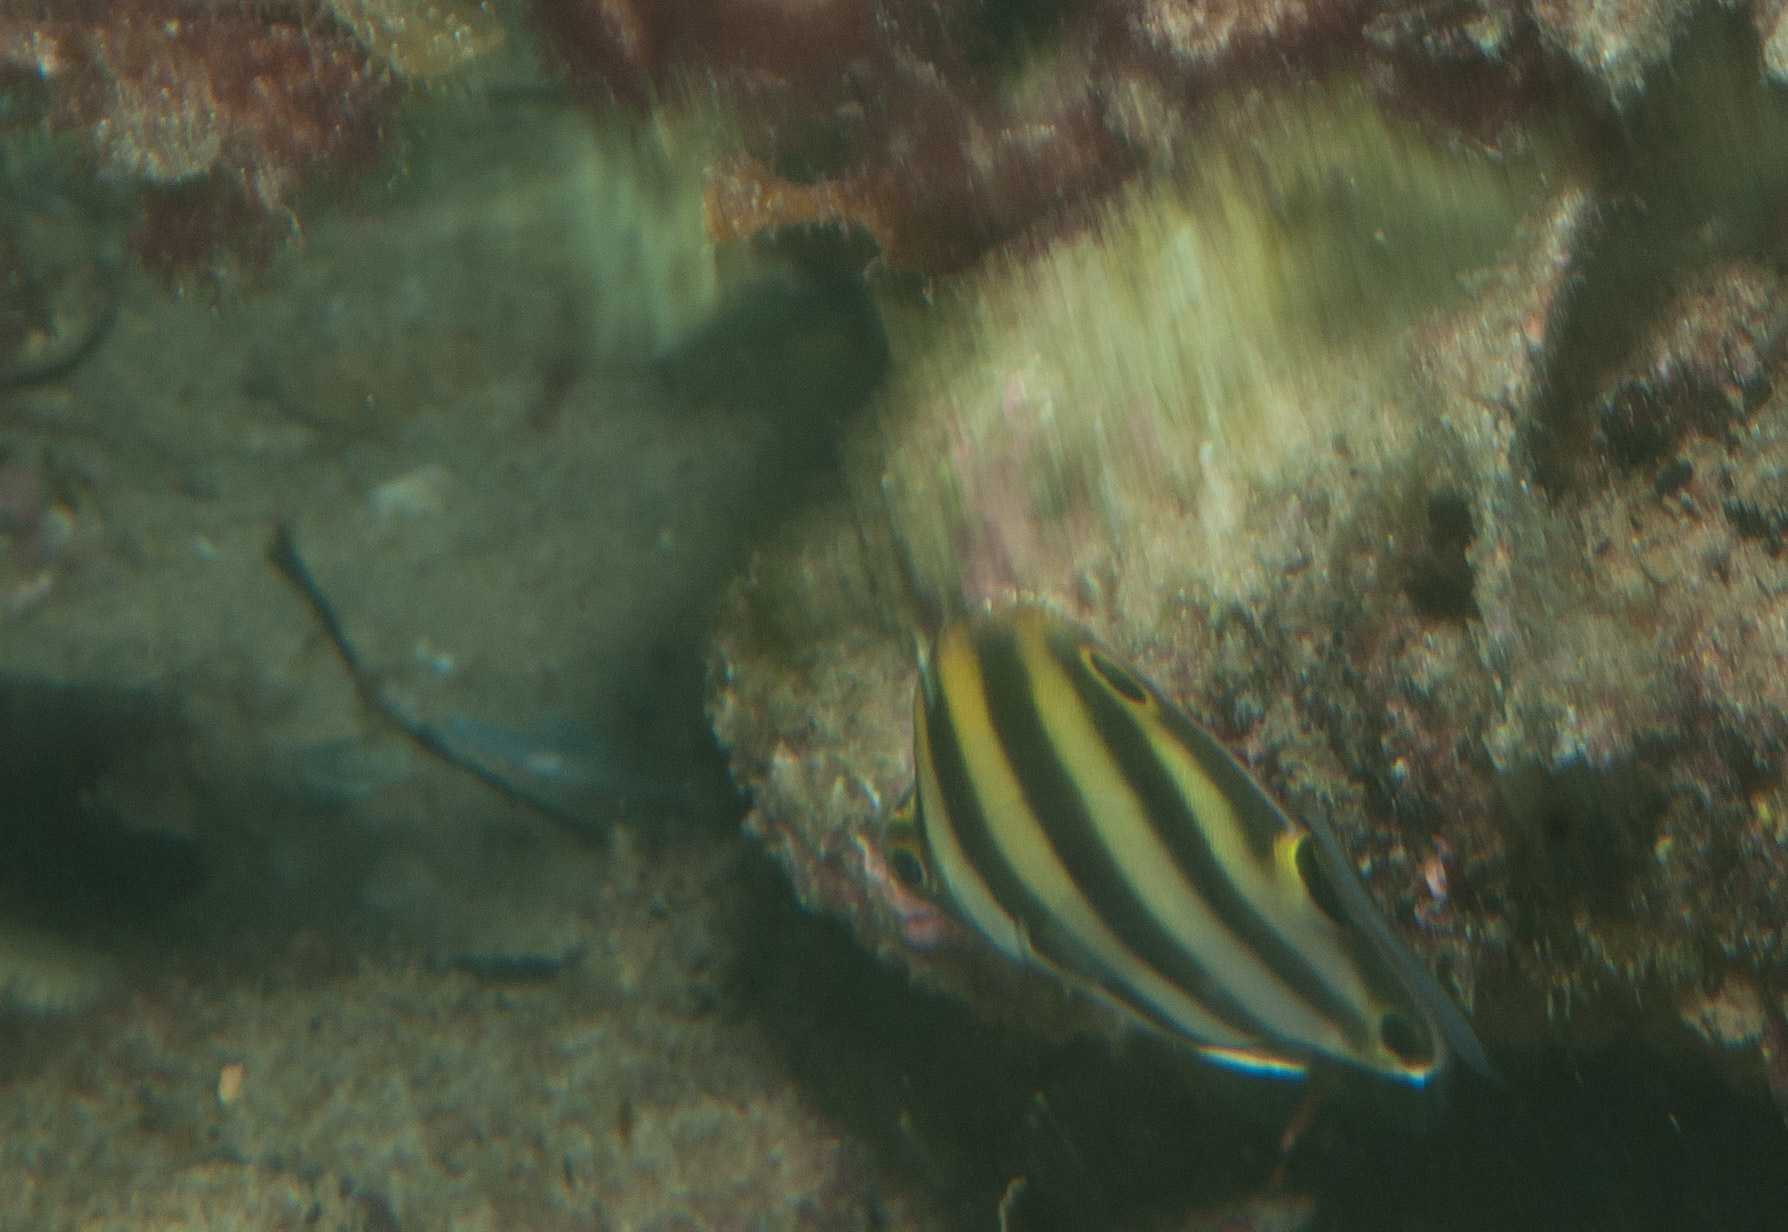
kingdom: Animalia
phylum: Chordata
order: Perciformes
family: Kyphosidae
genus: Tilodon
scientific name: Tilodon sexfasciatus
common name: Moonlighter
